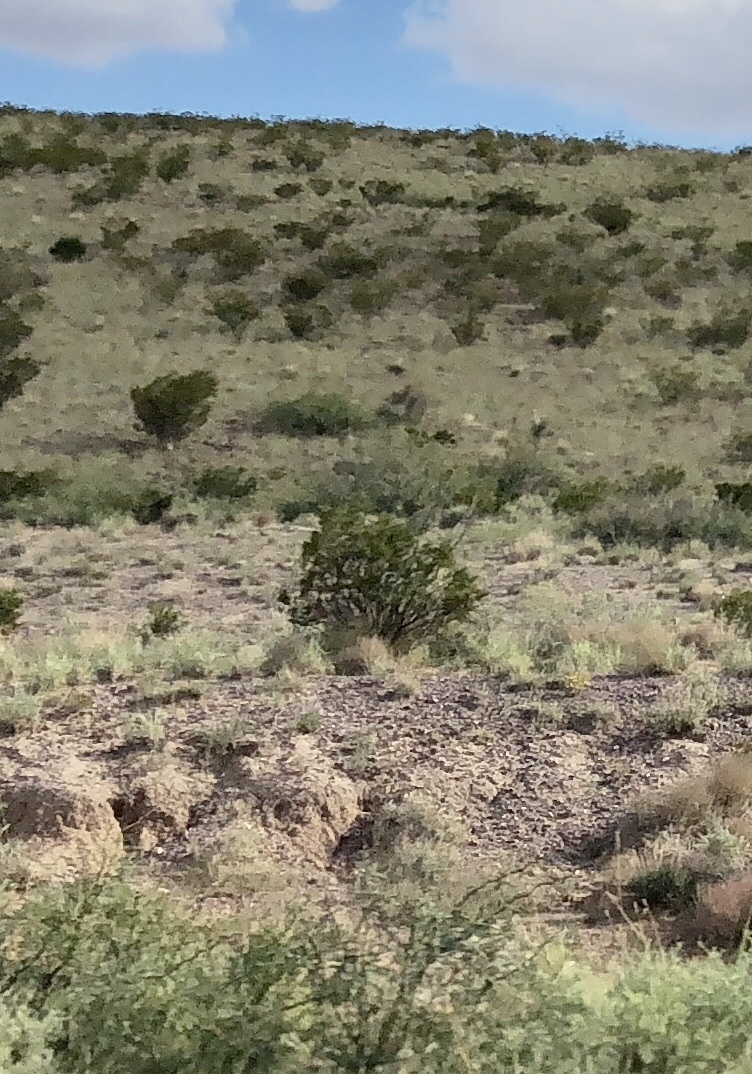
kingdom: Plantae
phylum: Tracheophyta
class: Magnoliopsida
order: Zygophyllales
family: Zygophyllaceae
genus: Larrea
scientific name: Larrea tridentata
